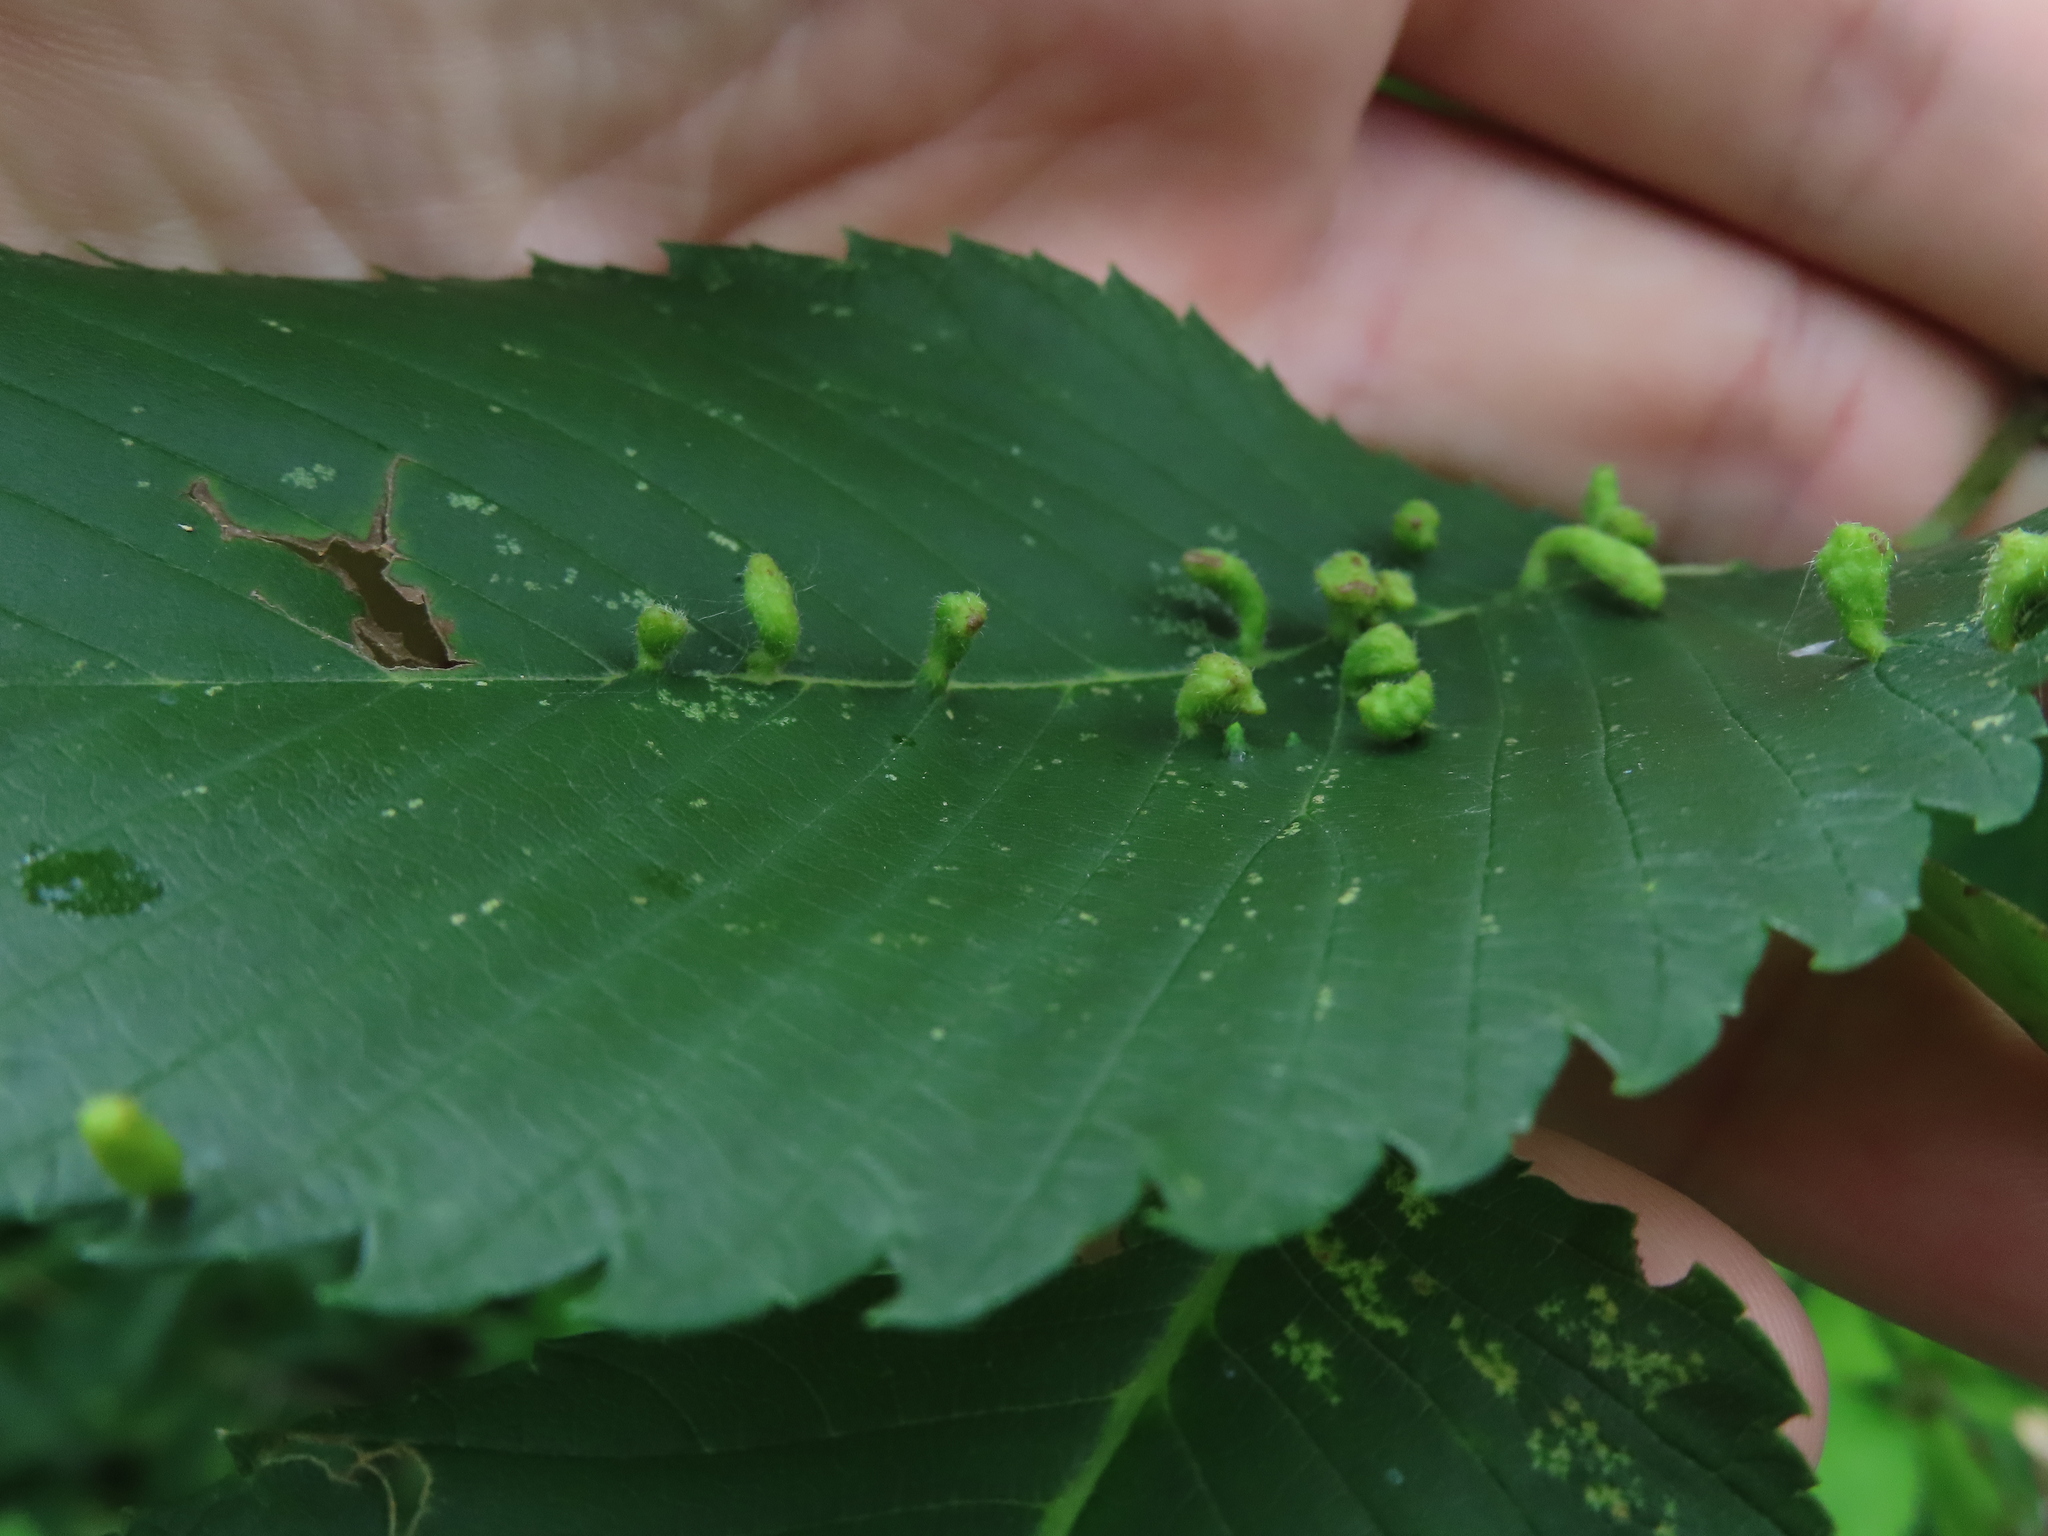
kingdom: Animalia
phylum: Arthropoda
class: Arachnida
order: Trombidiformes
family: Eriophyidae
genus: Aceria
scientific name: Aceria
